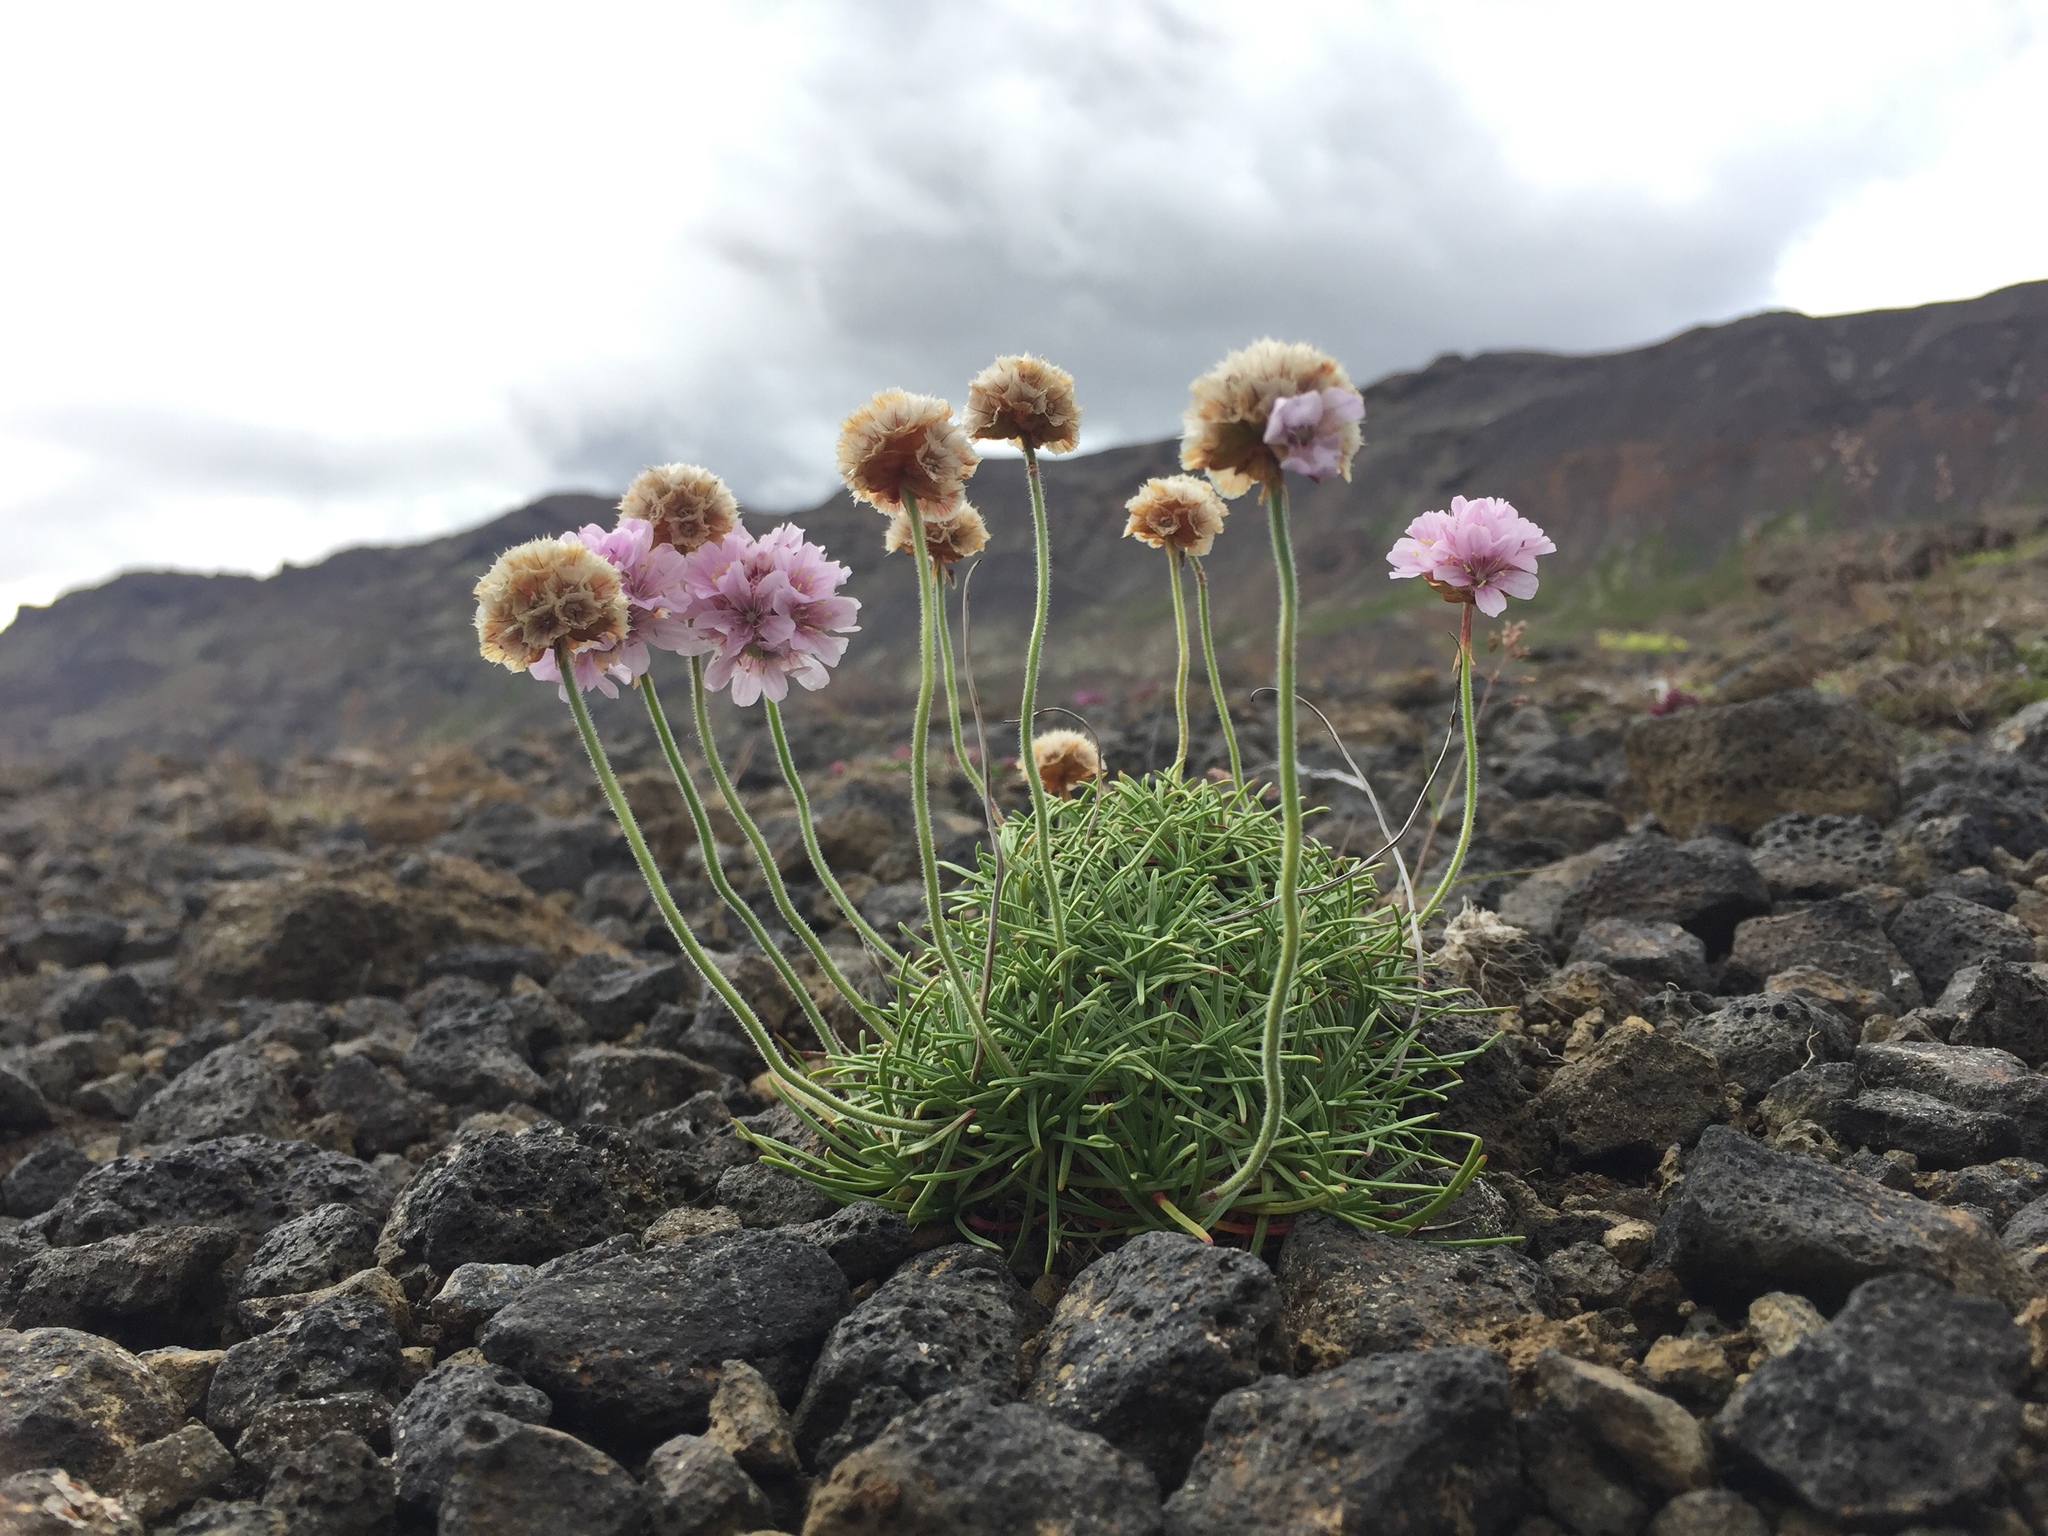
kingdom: Plantae
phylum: Tracheophyta
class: Magnoliopsida
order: Caryophyllales
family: Plumbaginaceae
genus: Armeria
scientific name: Armeria maritima
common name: Thrift
